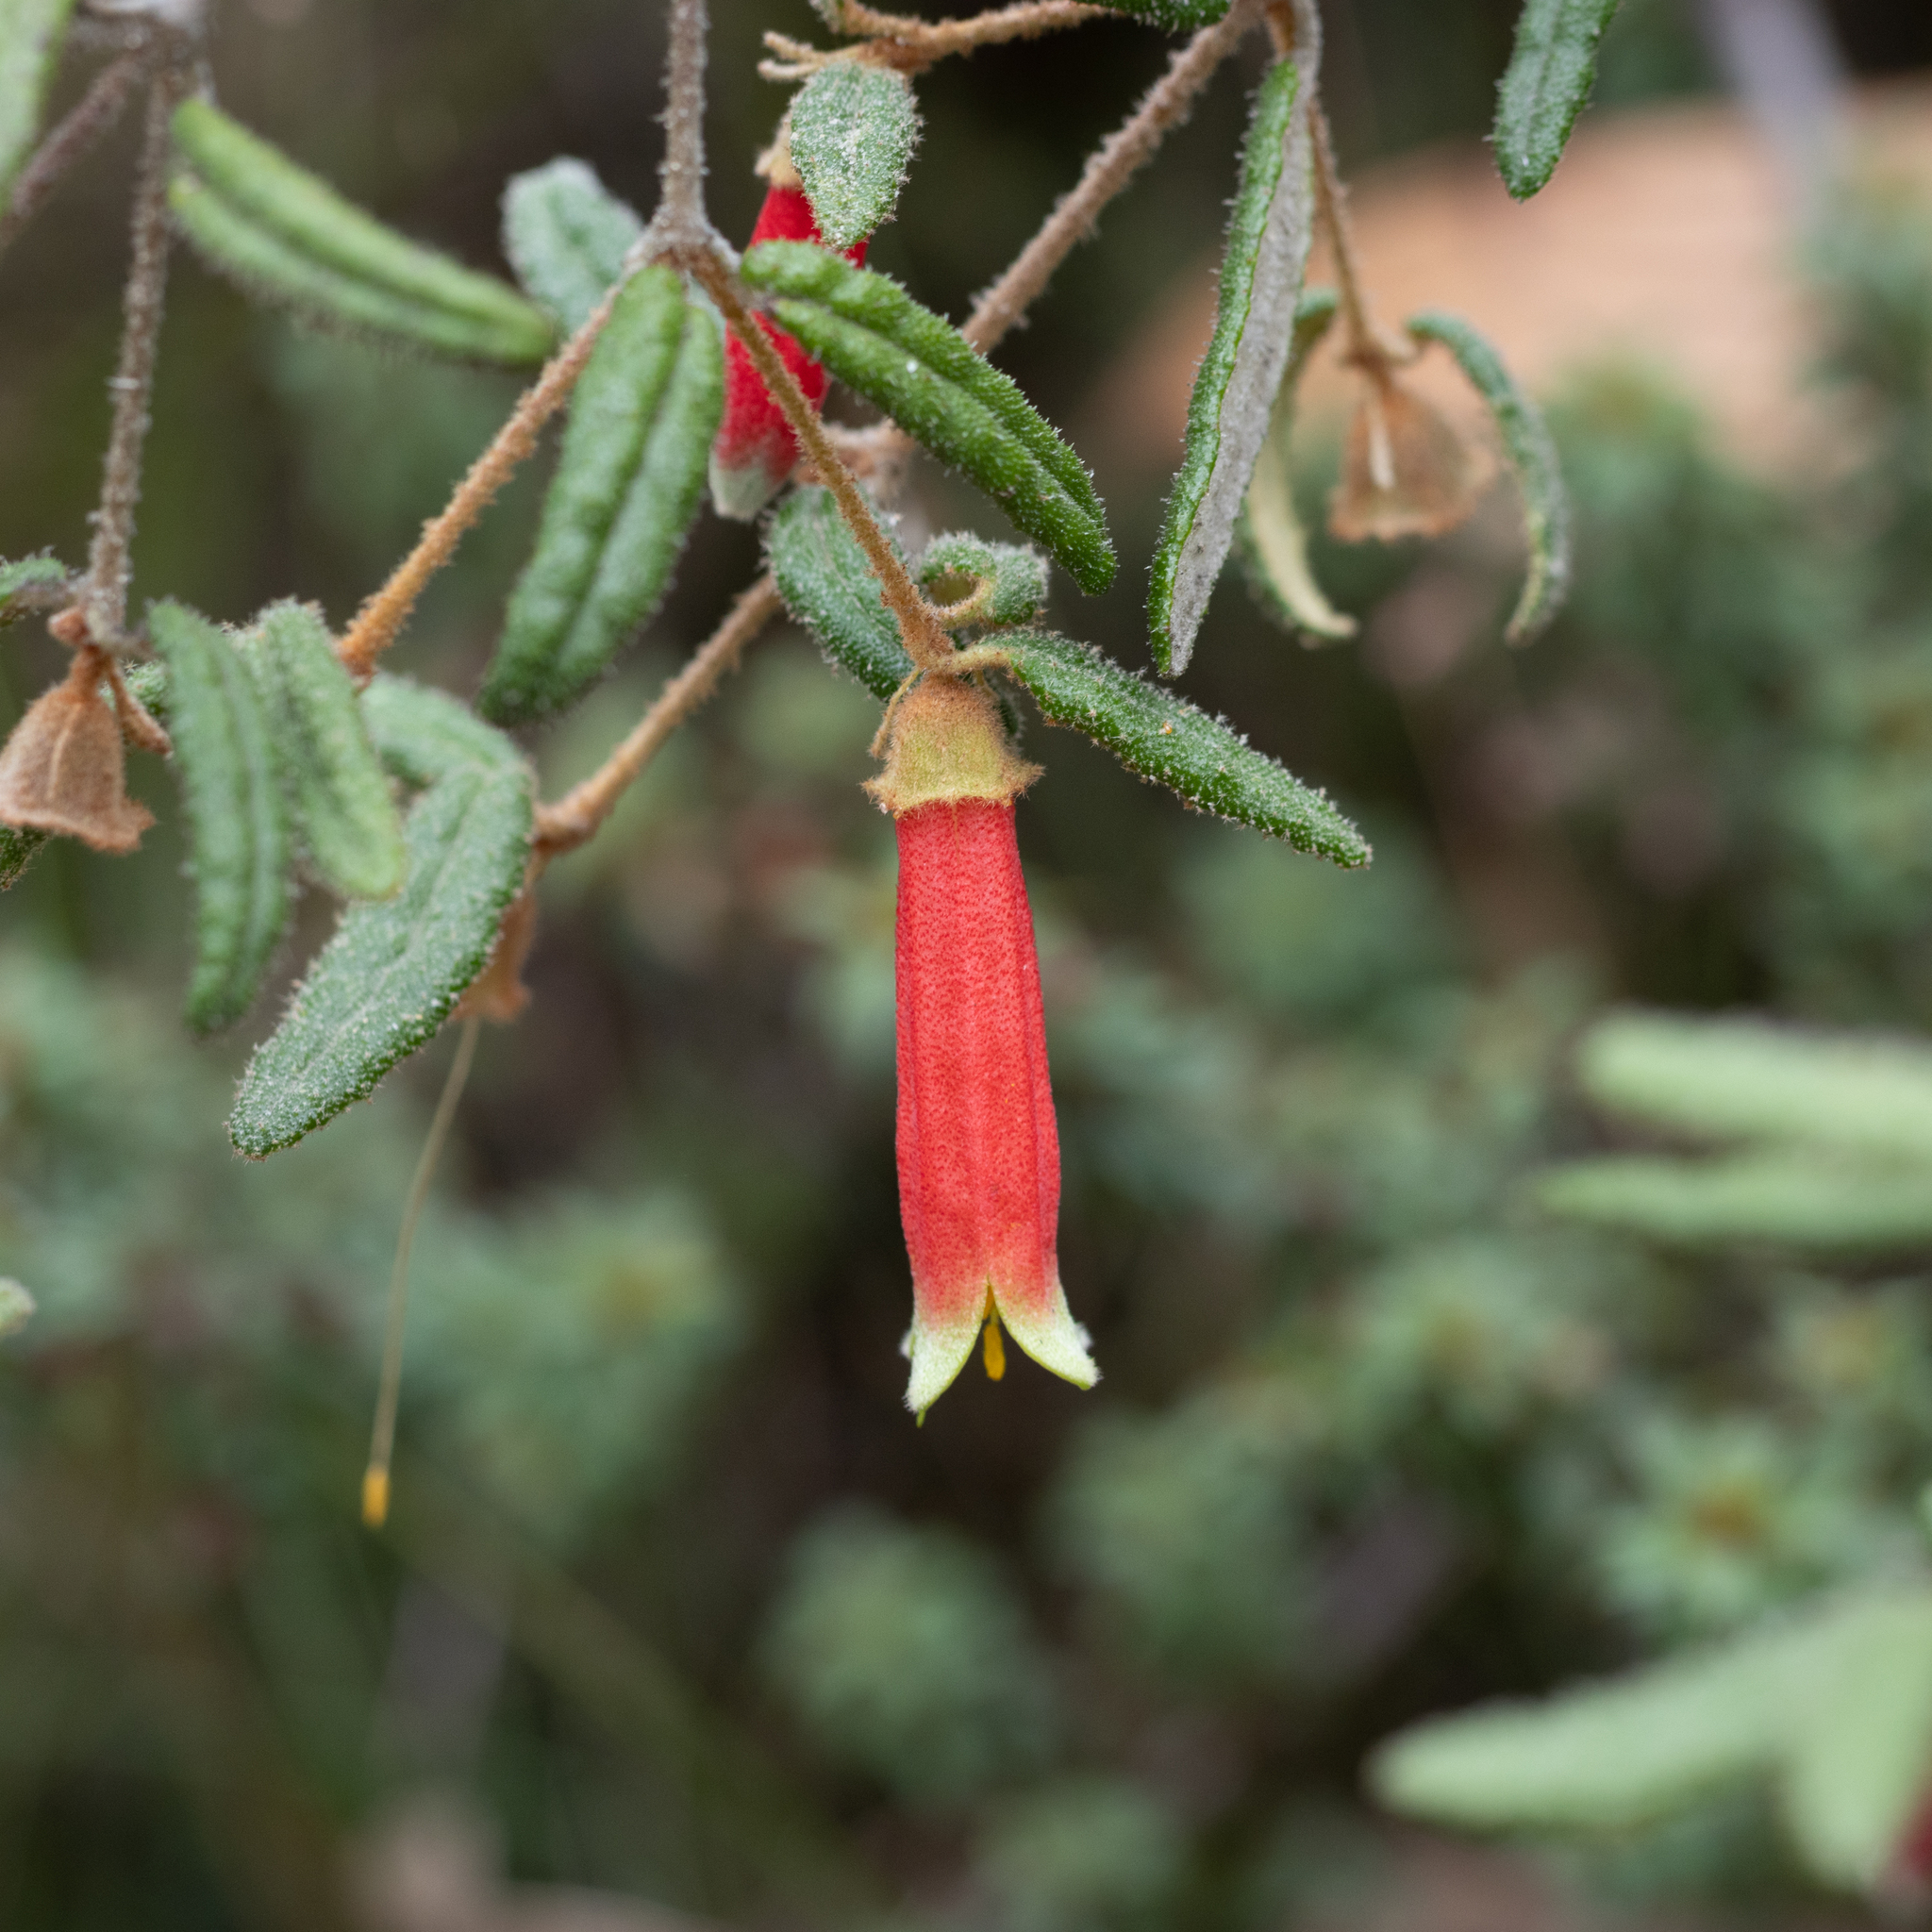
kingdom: Plantae
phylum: Tracheophyta
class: Magnoliopsida
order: Sapindales
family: Rutaceae
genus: Correa
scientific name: Correa reflexa
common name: Common correa
